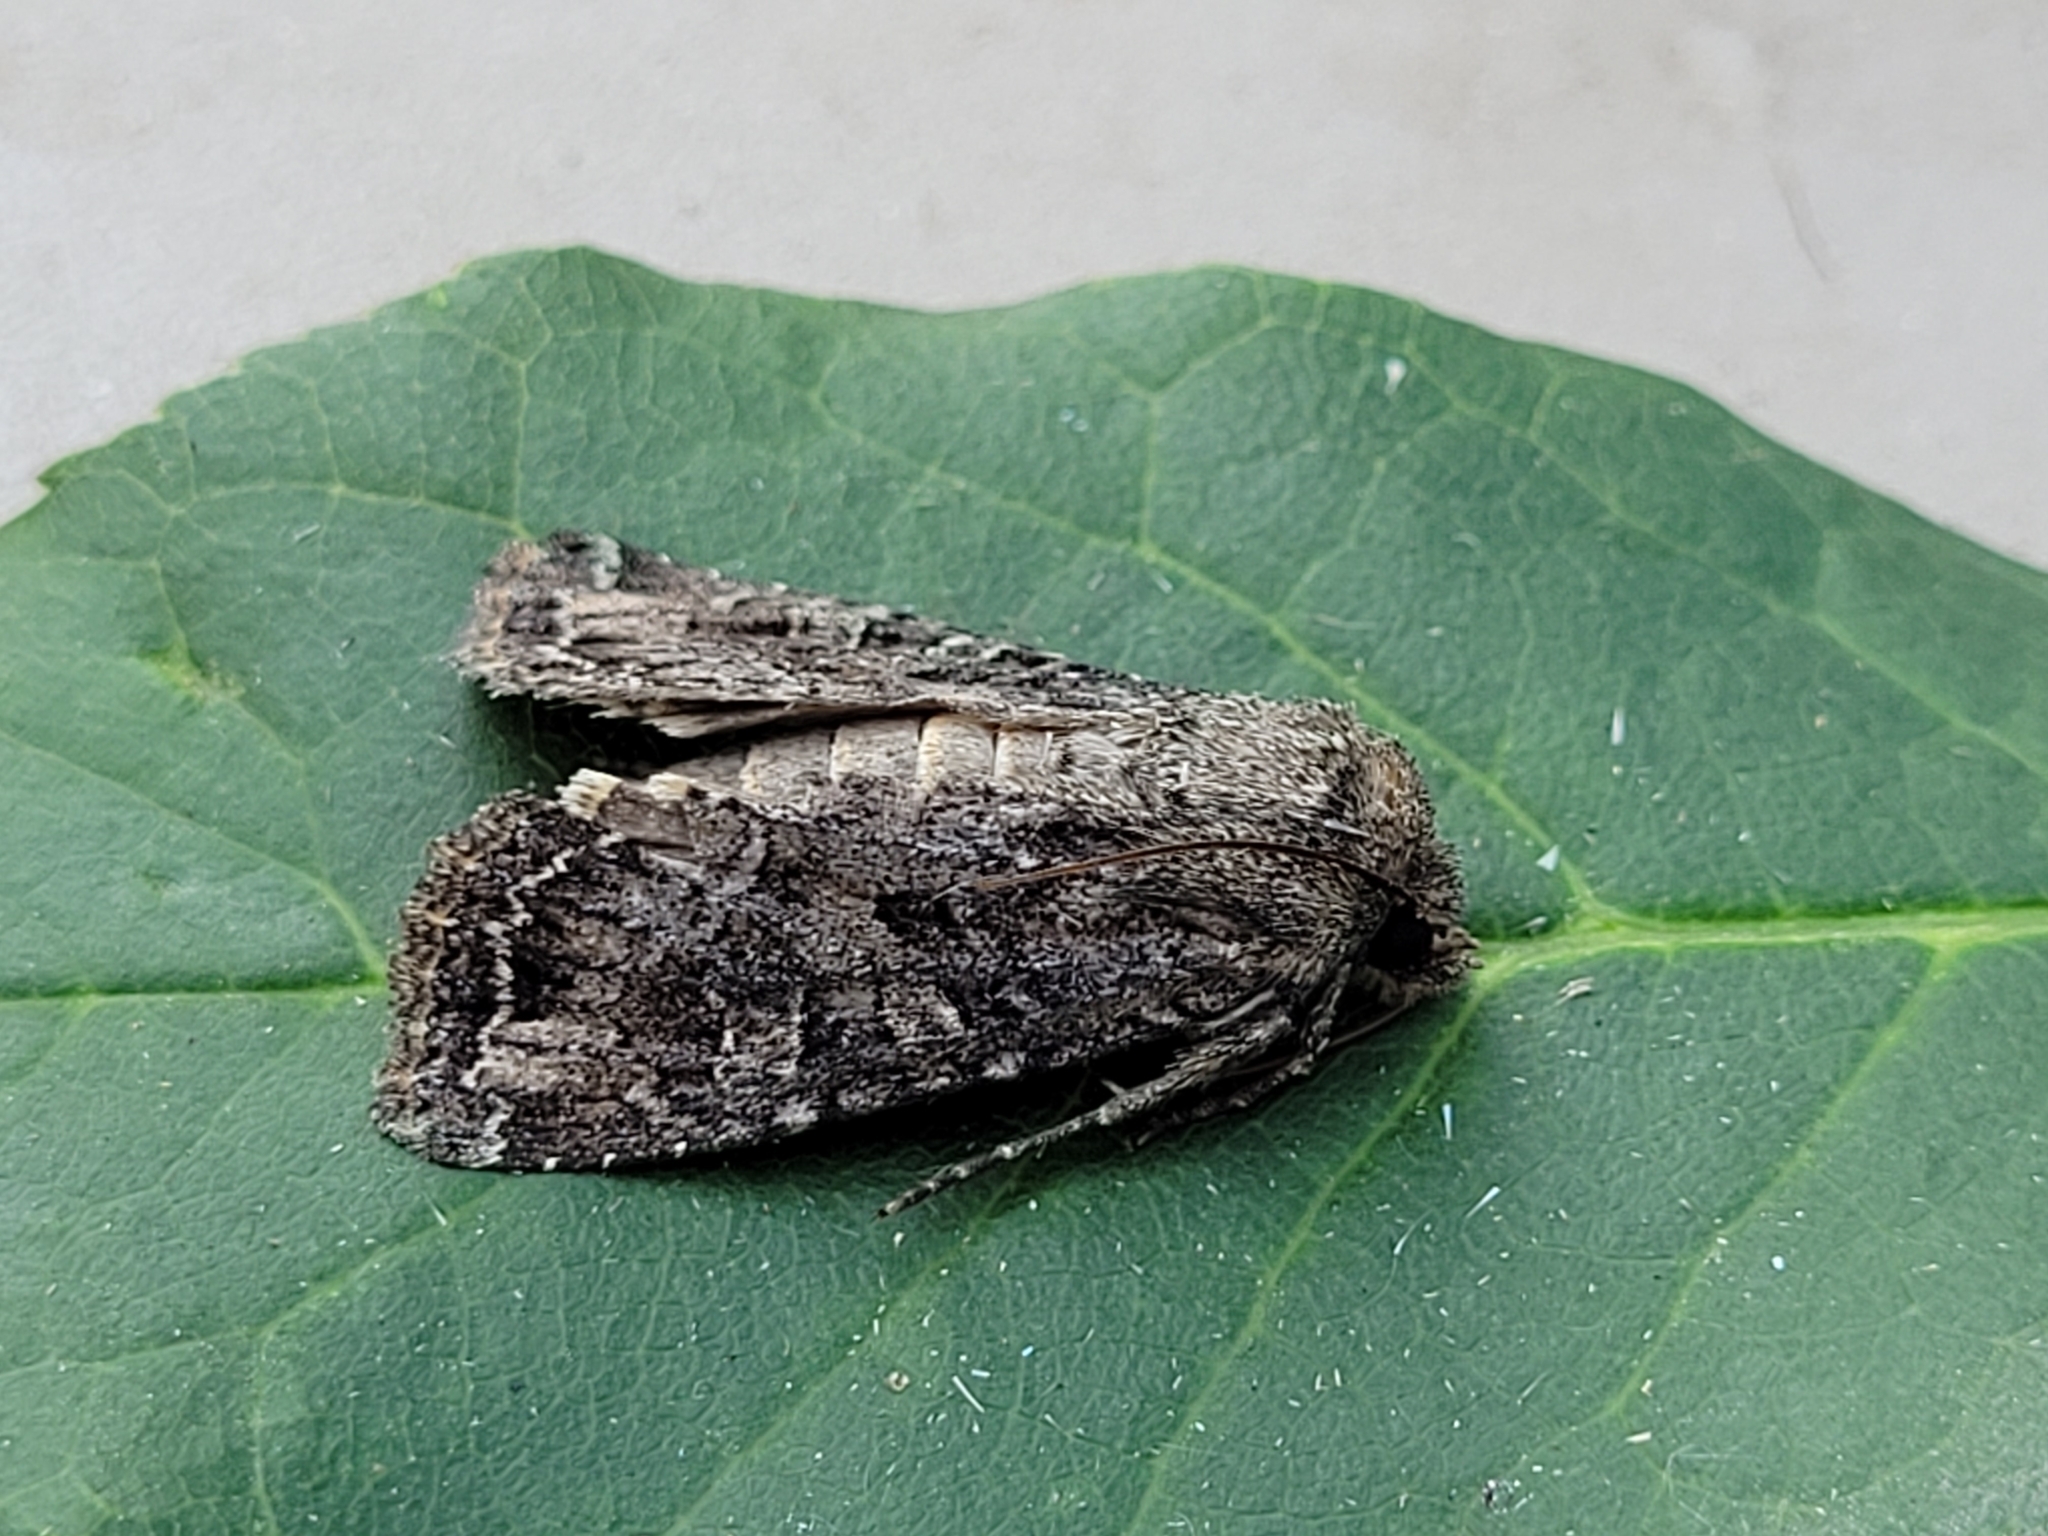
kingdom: Animalia
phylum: Arthropoda
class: Insecta
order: Lepidoptera
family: Noctuidae
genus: Apamea
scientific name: Apamea devastator
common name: Glassy cutworm
